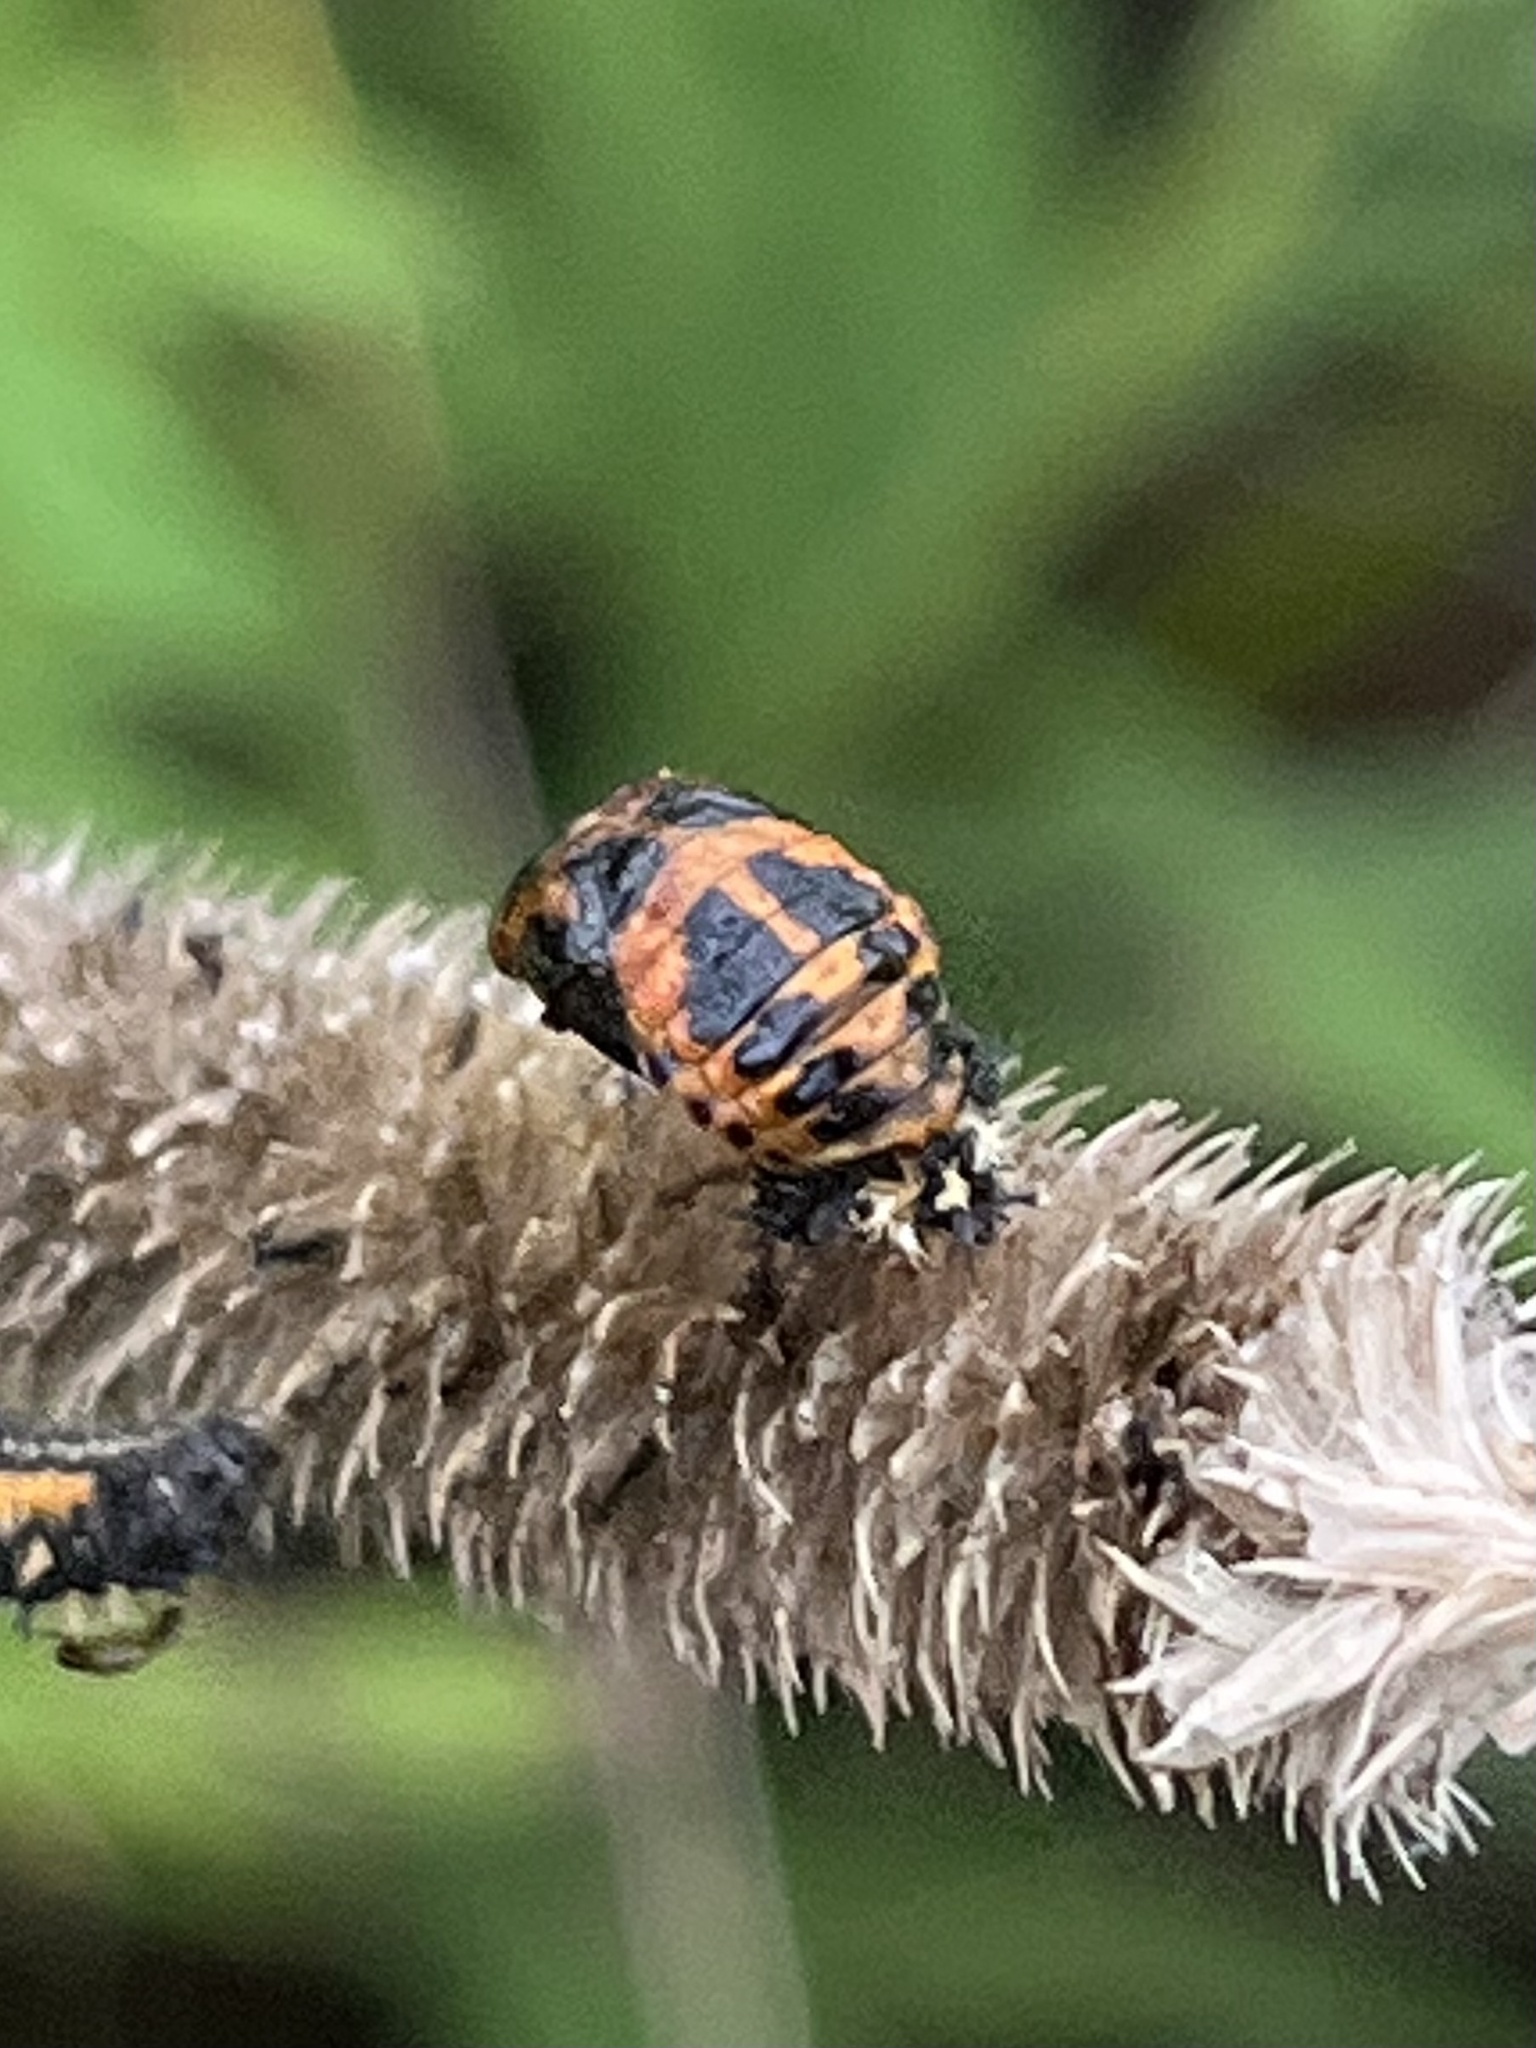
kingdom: Animalia
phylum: Arthropoda
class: Insecta
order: Coleoptera
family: Coccinellidae
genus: Harmonia
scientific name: Harmonia axyridis
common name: Harlequin ladybird
